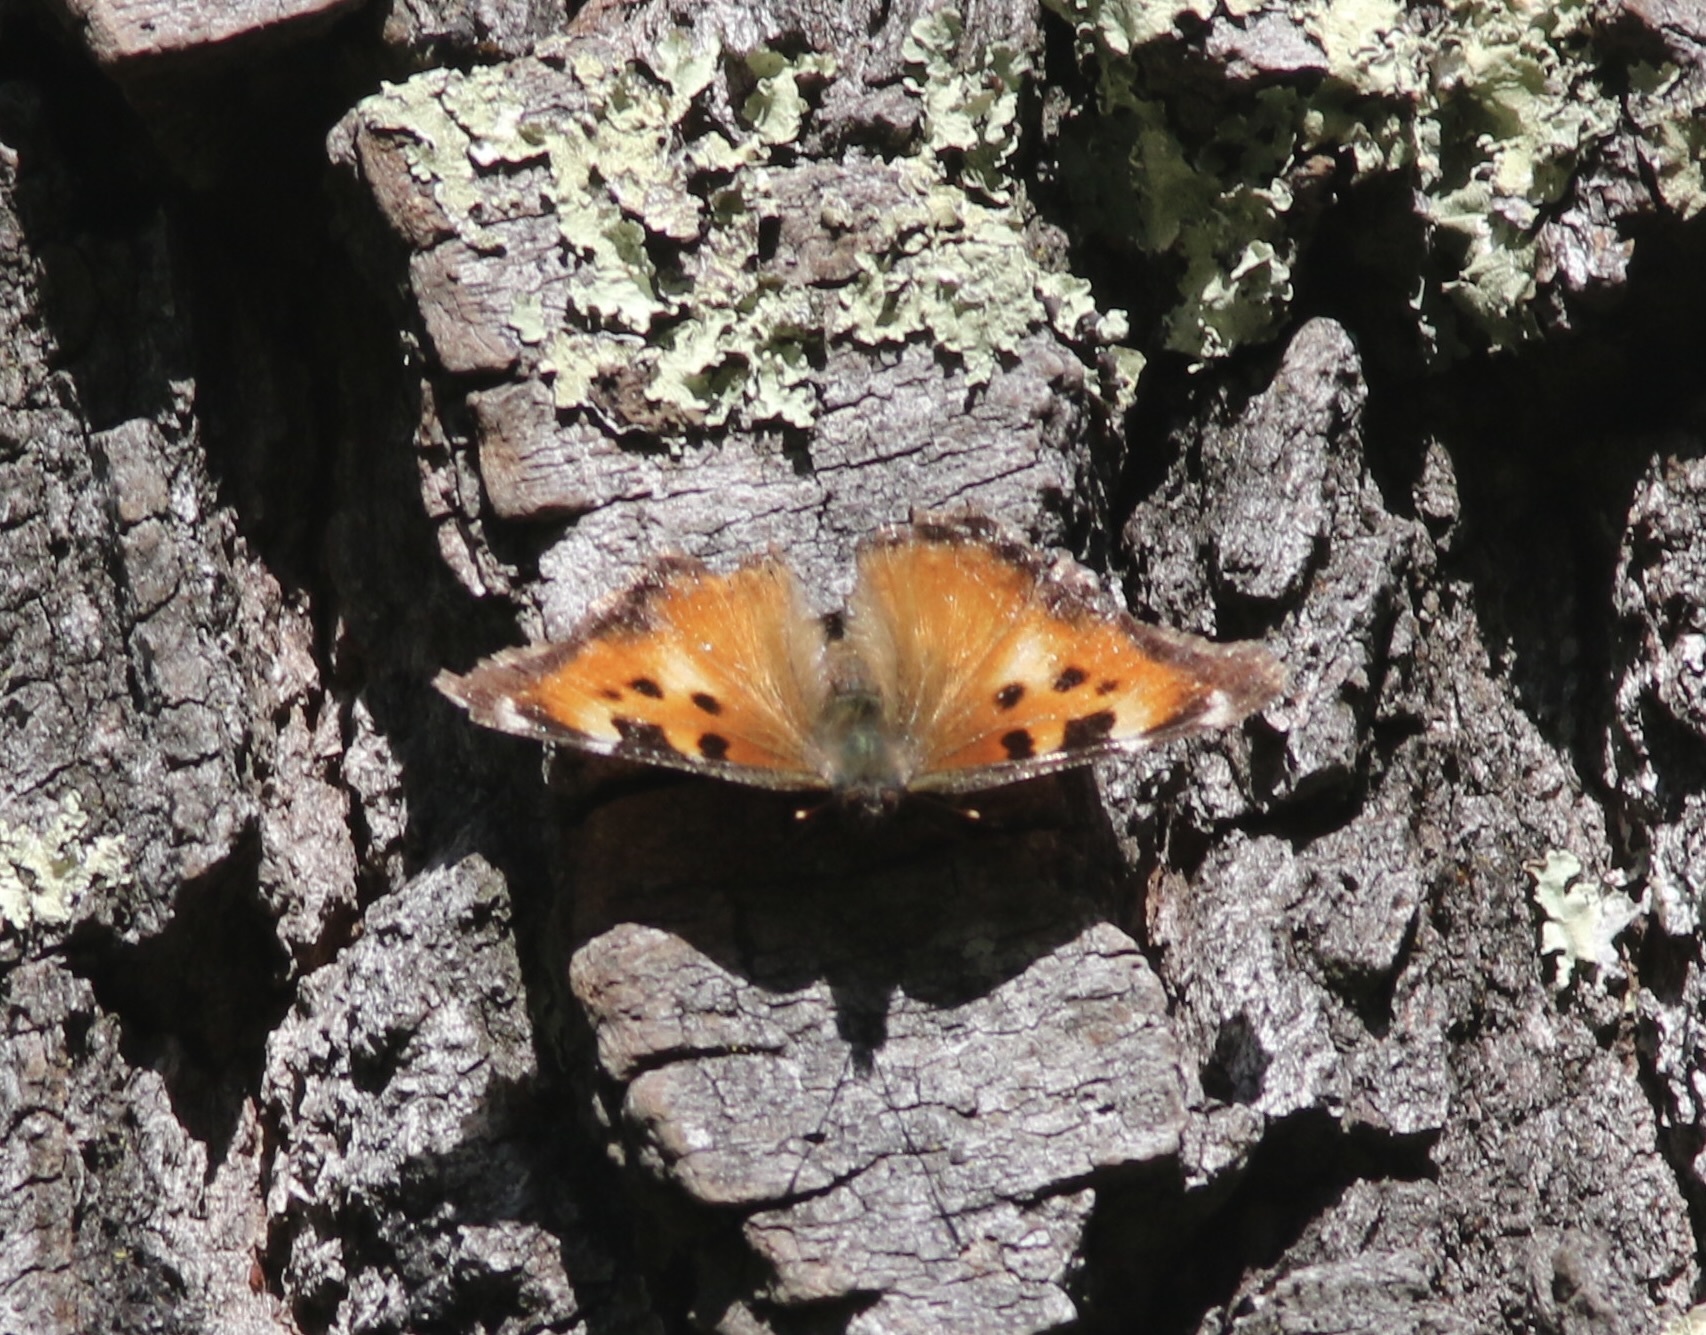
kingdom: Animalia
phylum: Arthropoda
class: Insecta
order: Lepidoptera
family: Nymphalidae
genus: Nymphalis
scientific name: Nymphalis californica
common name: California tortoiseshell
